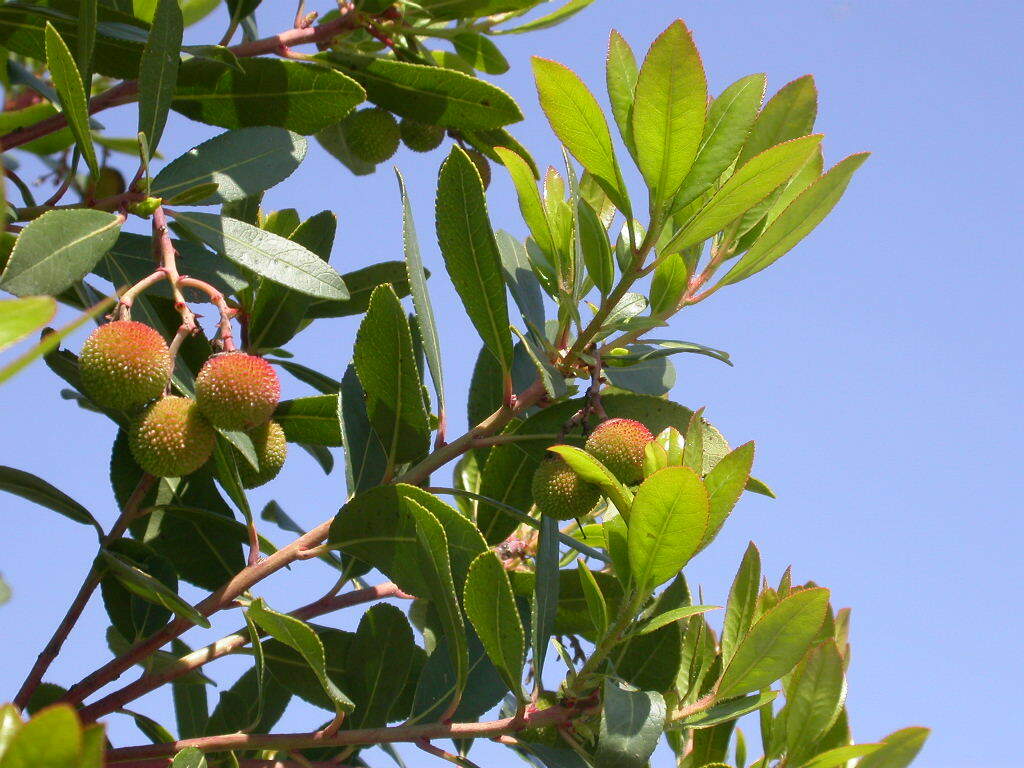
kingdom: Plantae
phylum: Tracheophyta
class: Magnoliopsida
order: Ericales
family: Ericaceae
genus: Arbutus
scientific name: Arbutus unedo
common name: Strawberry-tree
